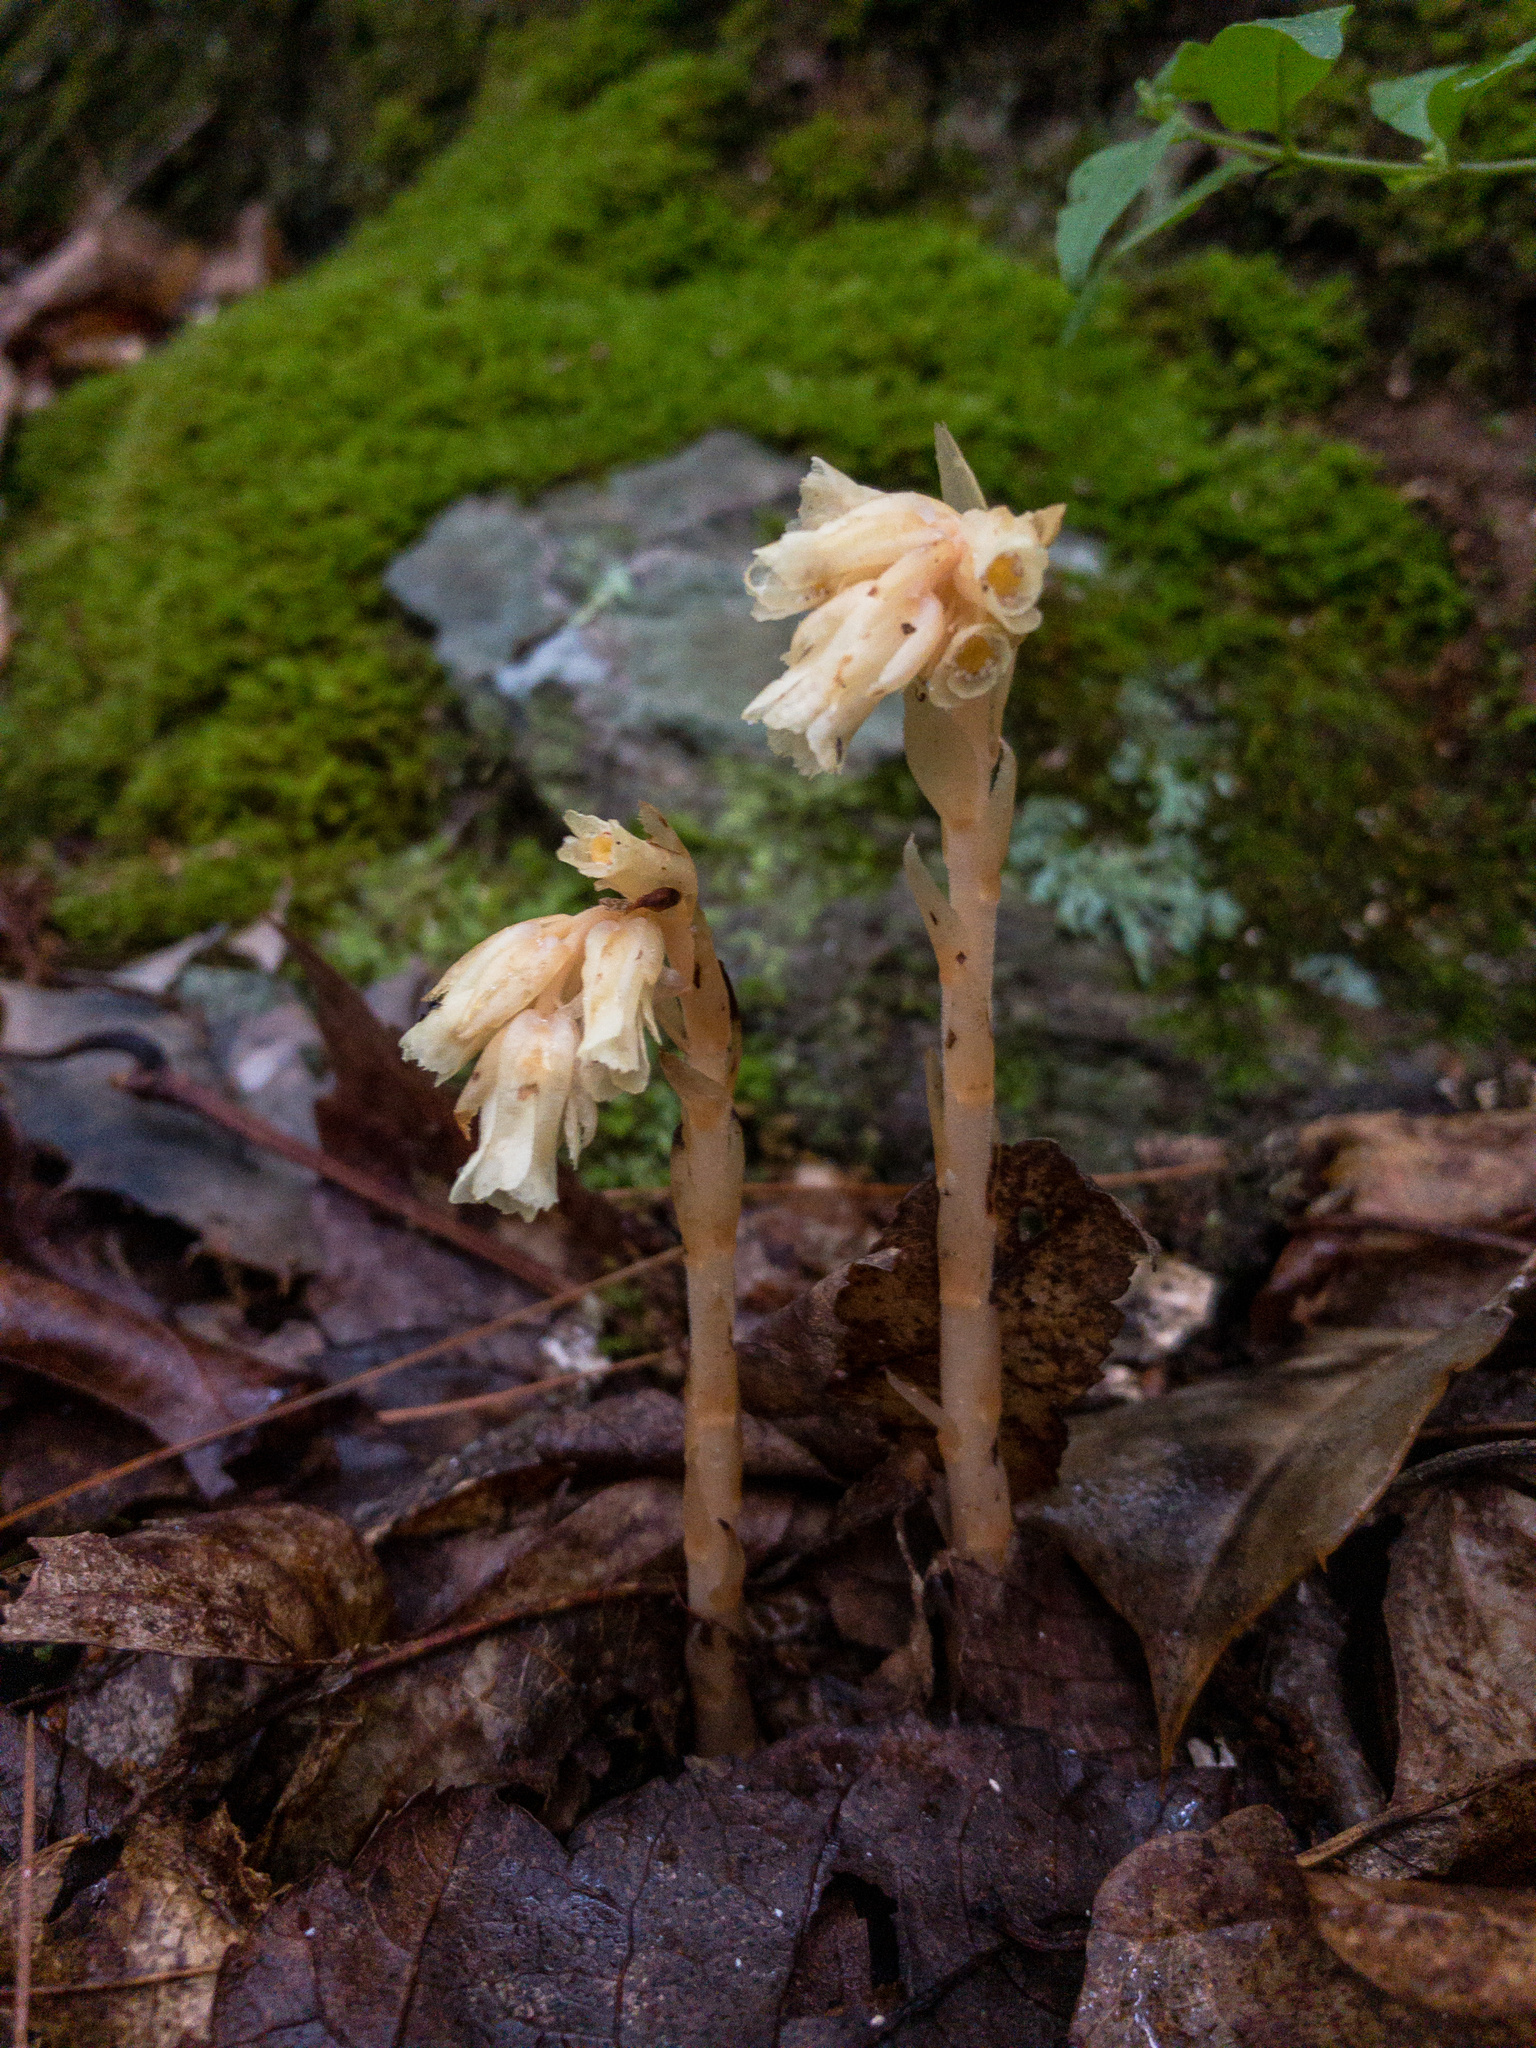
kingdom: Plantae
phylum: Tracheophyta
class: Magnoliopsida
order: Ericales
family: Ericaceae
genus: Hypopitys
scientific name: Hypopitys monotropa
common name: Yellow bird's-nest
